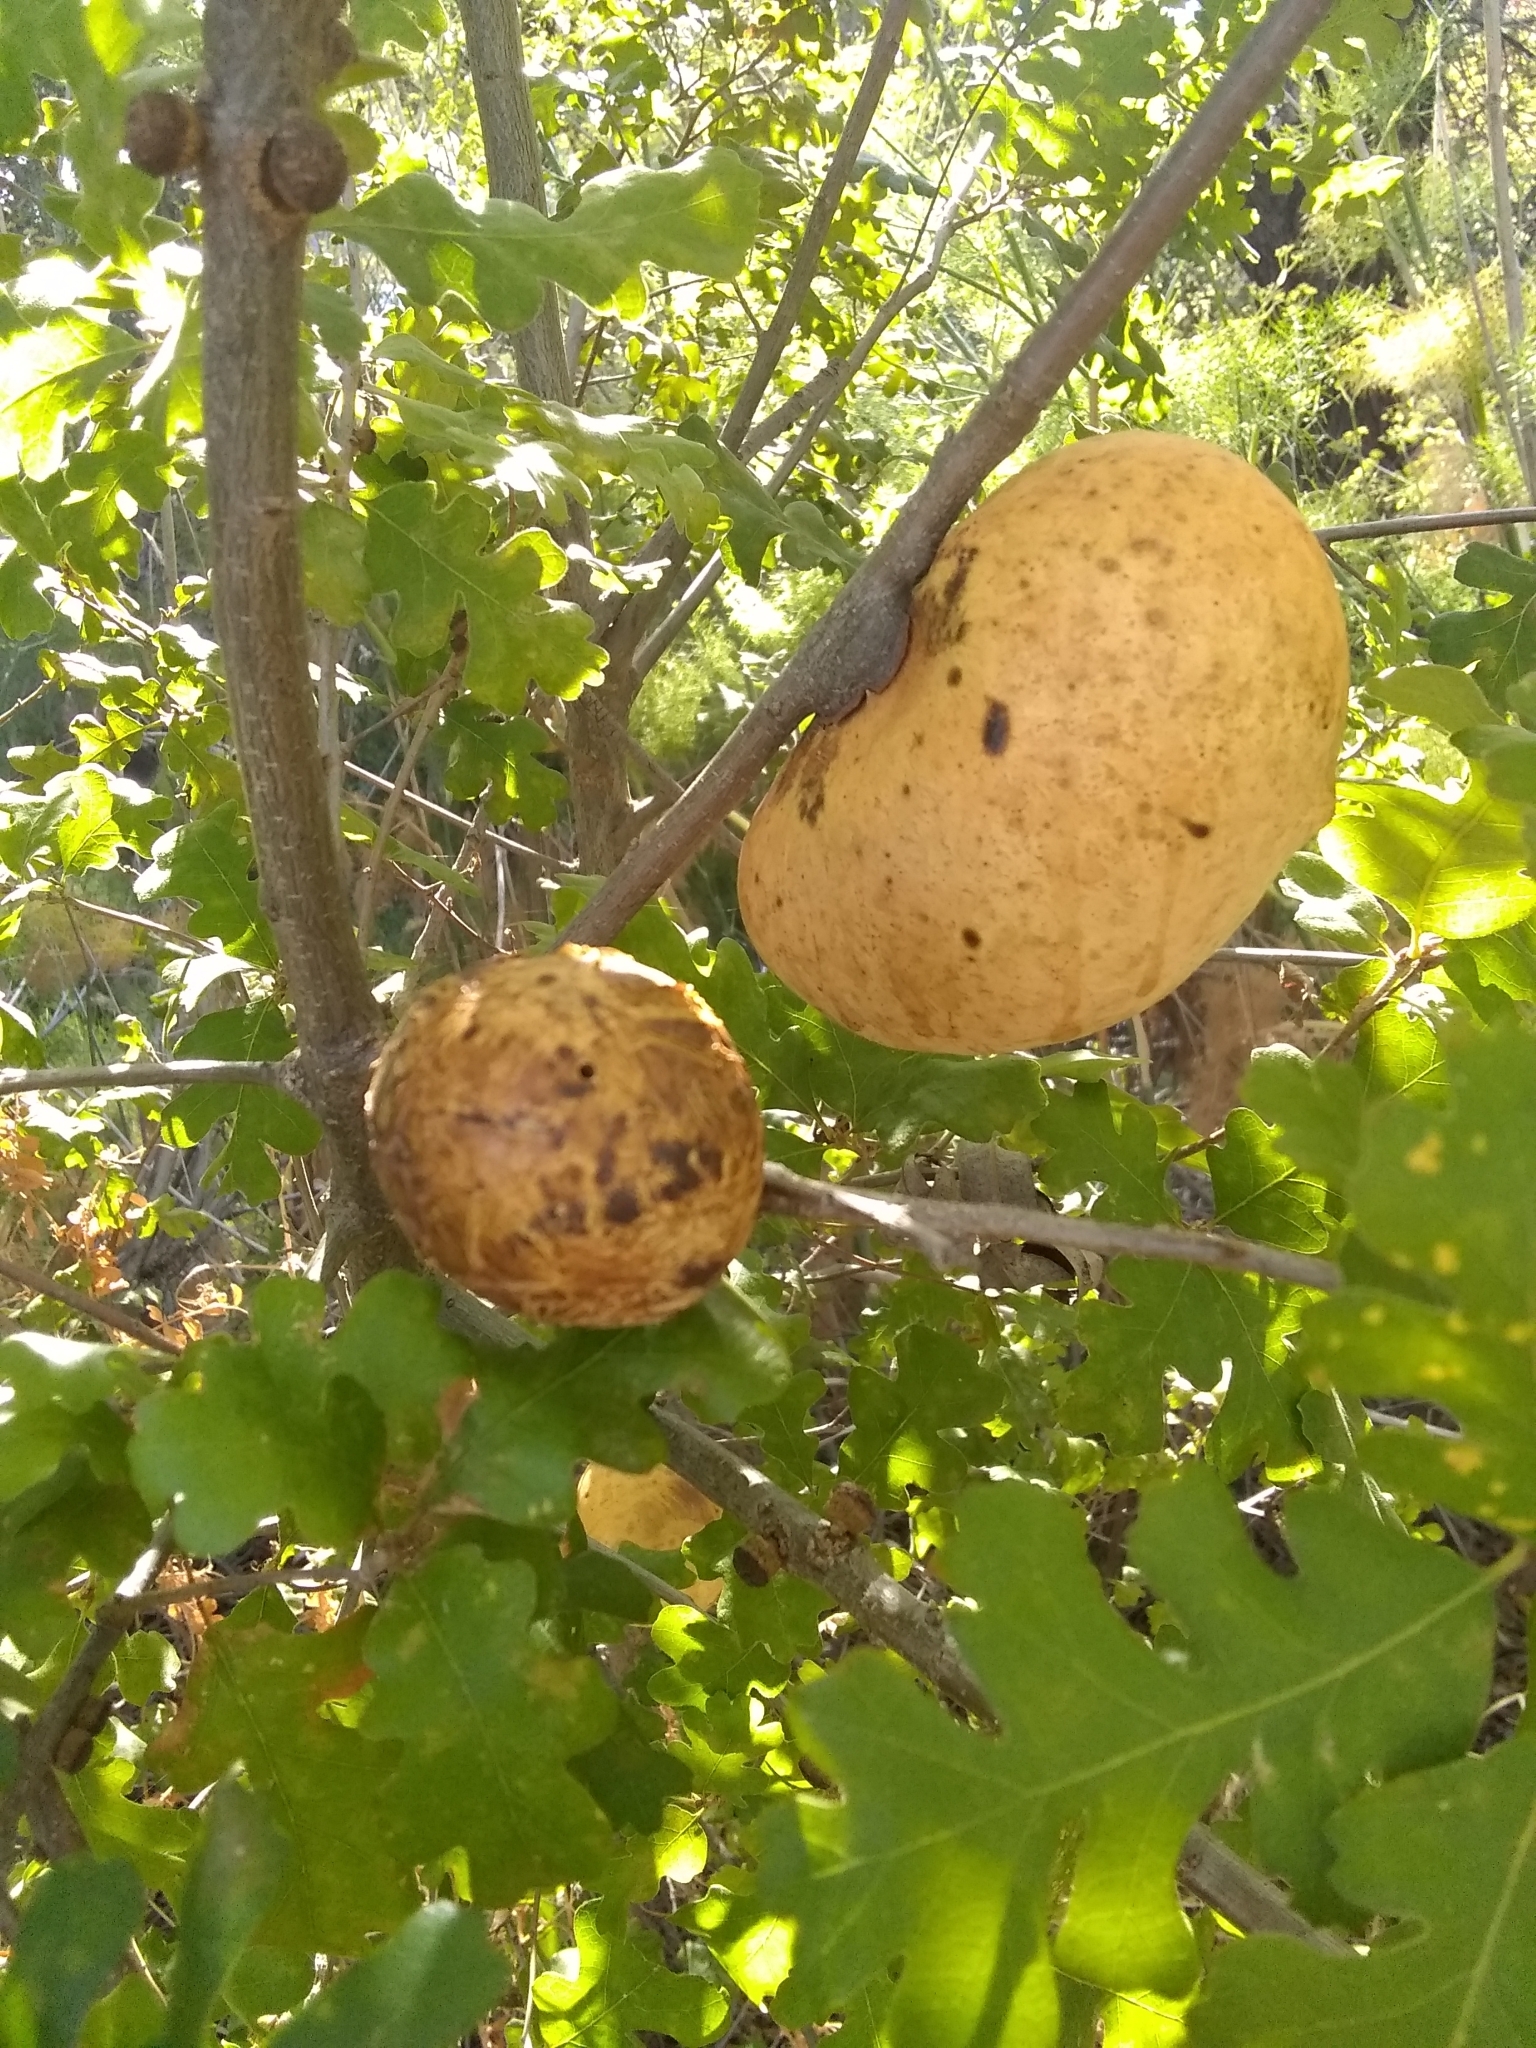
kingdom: Animalia
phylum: Arthropoda
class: Insecta
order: Hymenoptera
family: Cynipidae
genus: Andricus
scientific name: Andricus quercuscalifornicus
